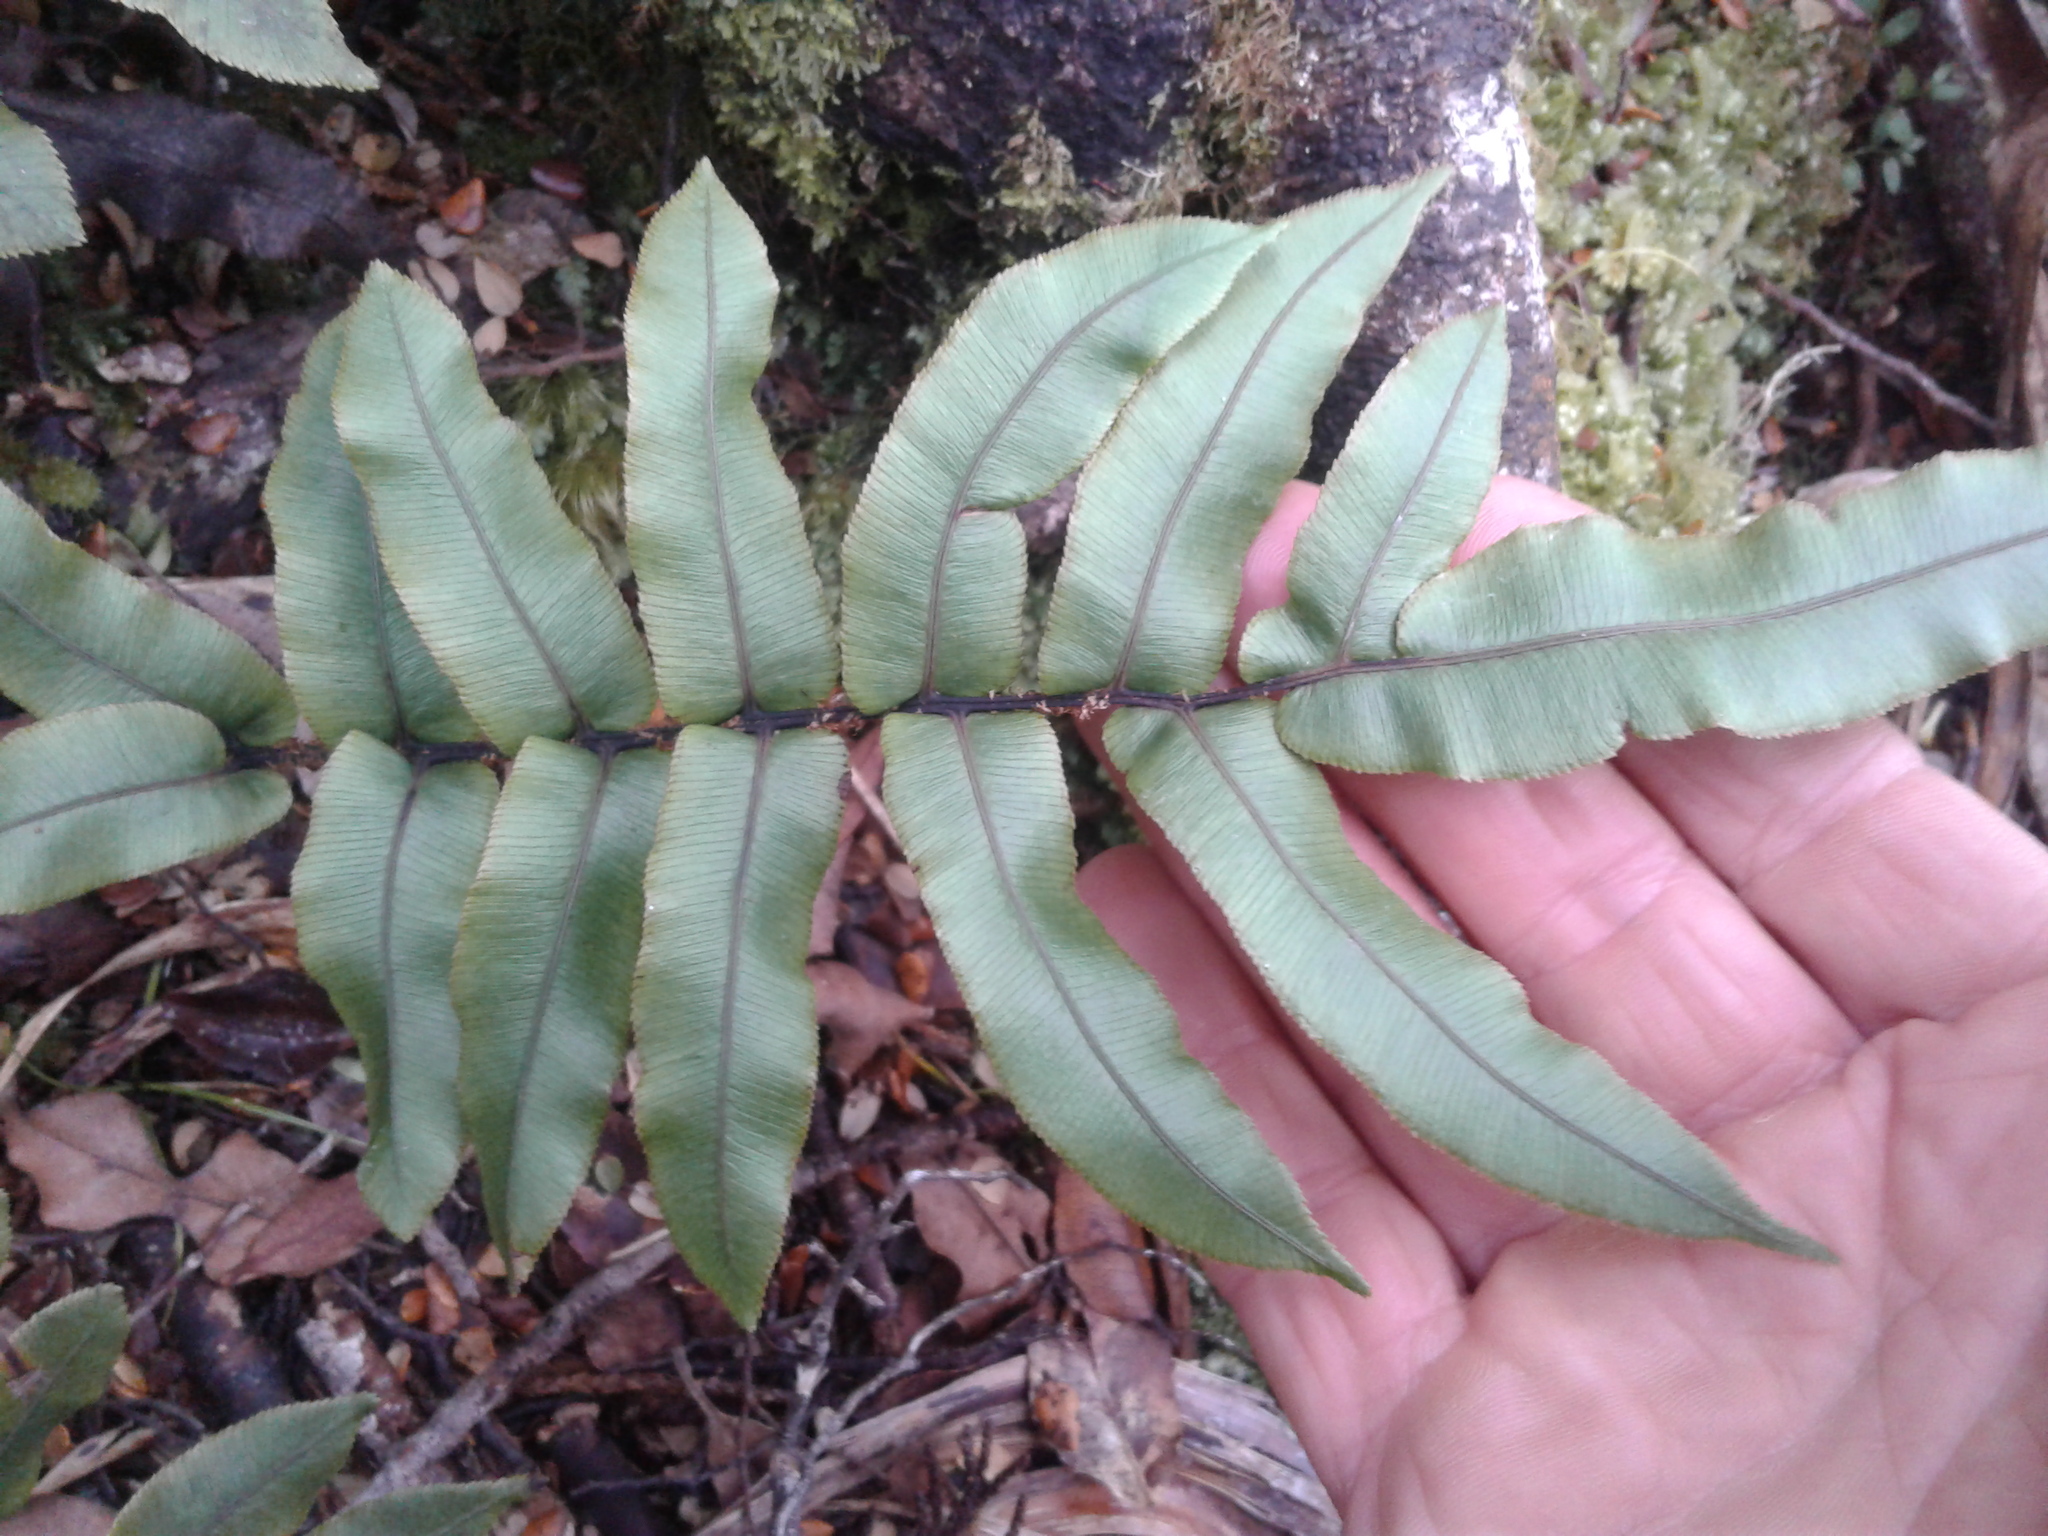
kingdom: Plantae
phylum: Tracheophyta
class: Polypodiopsida
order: Polypodiales
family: Blechnaceae
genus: Parablechnum
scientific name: Parablechnum procerum
